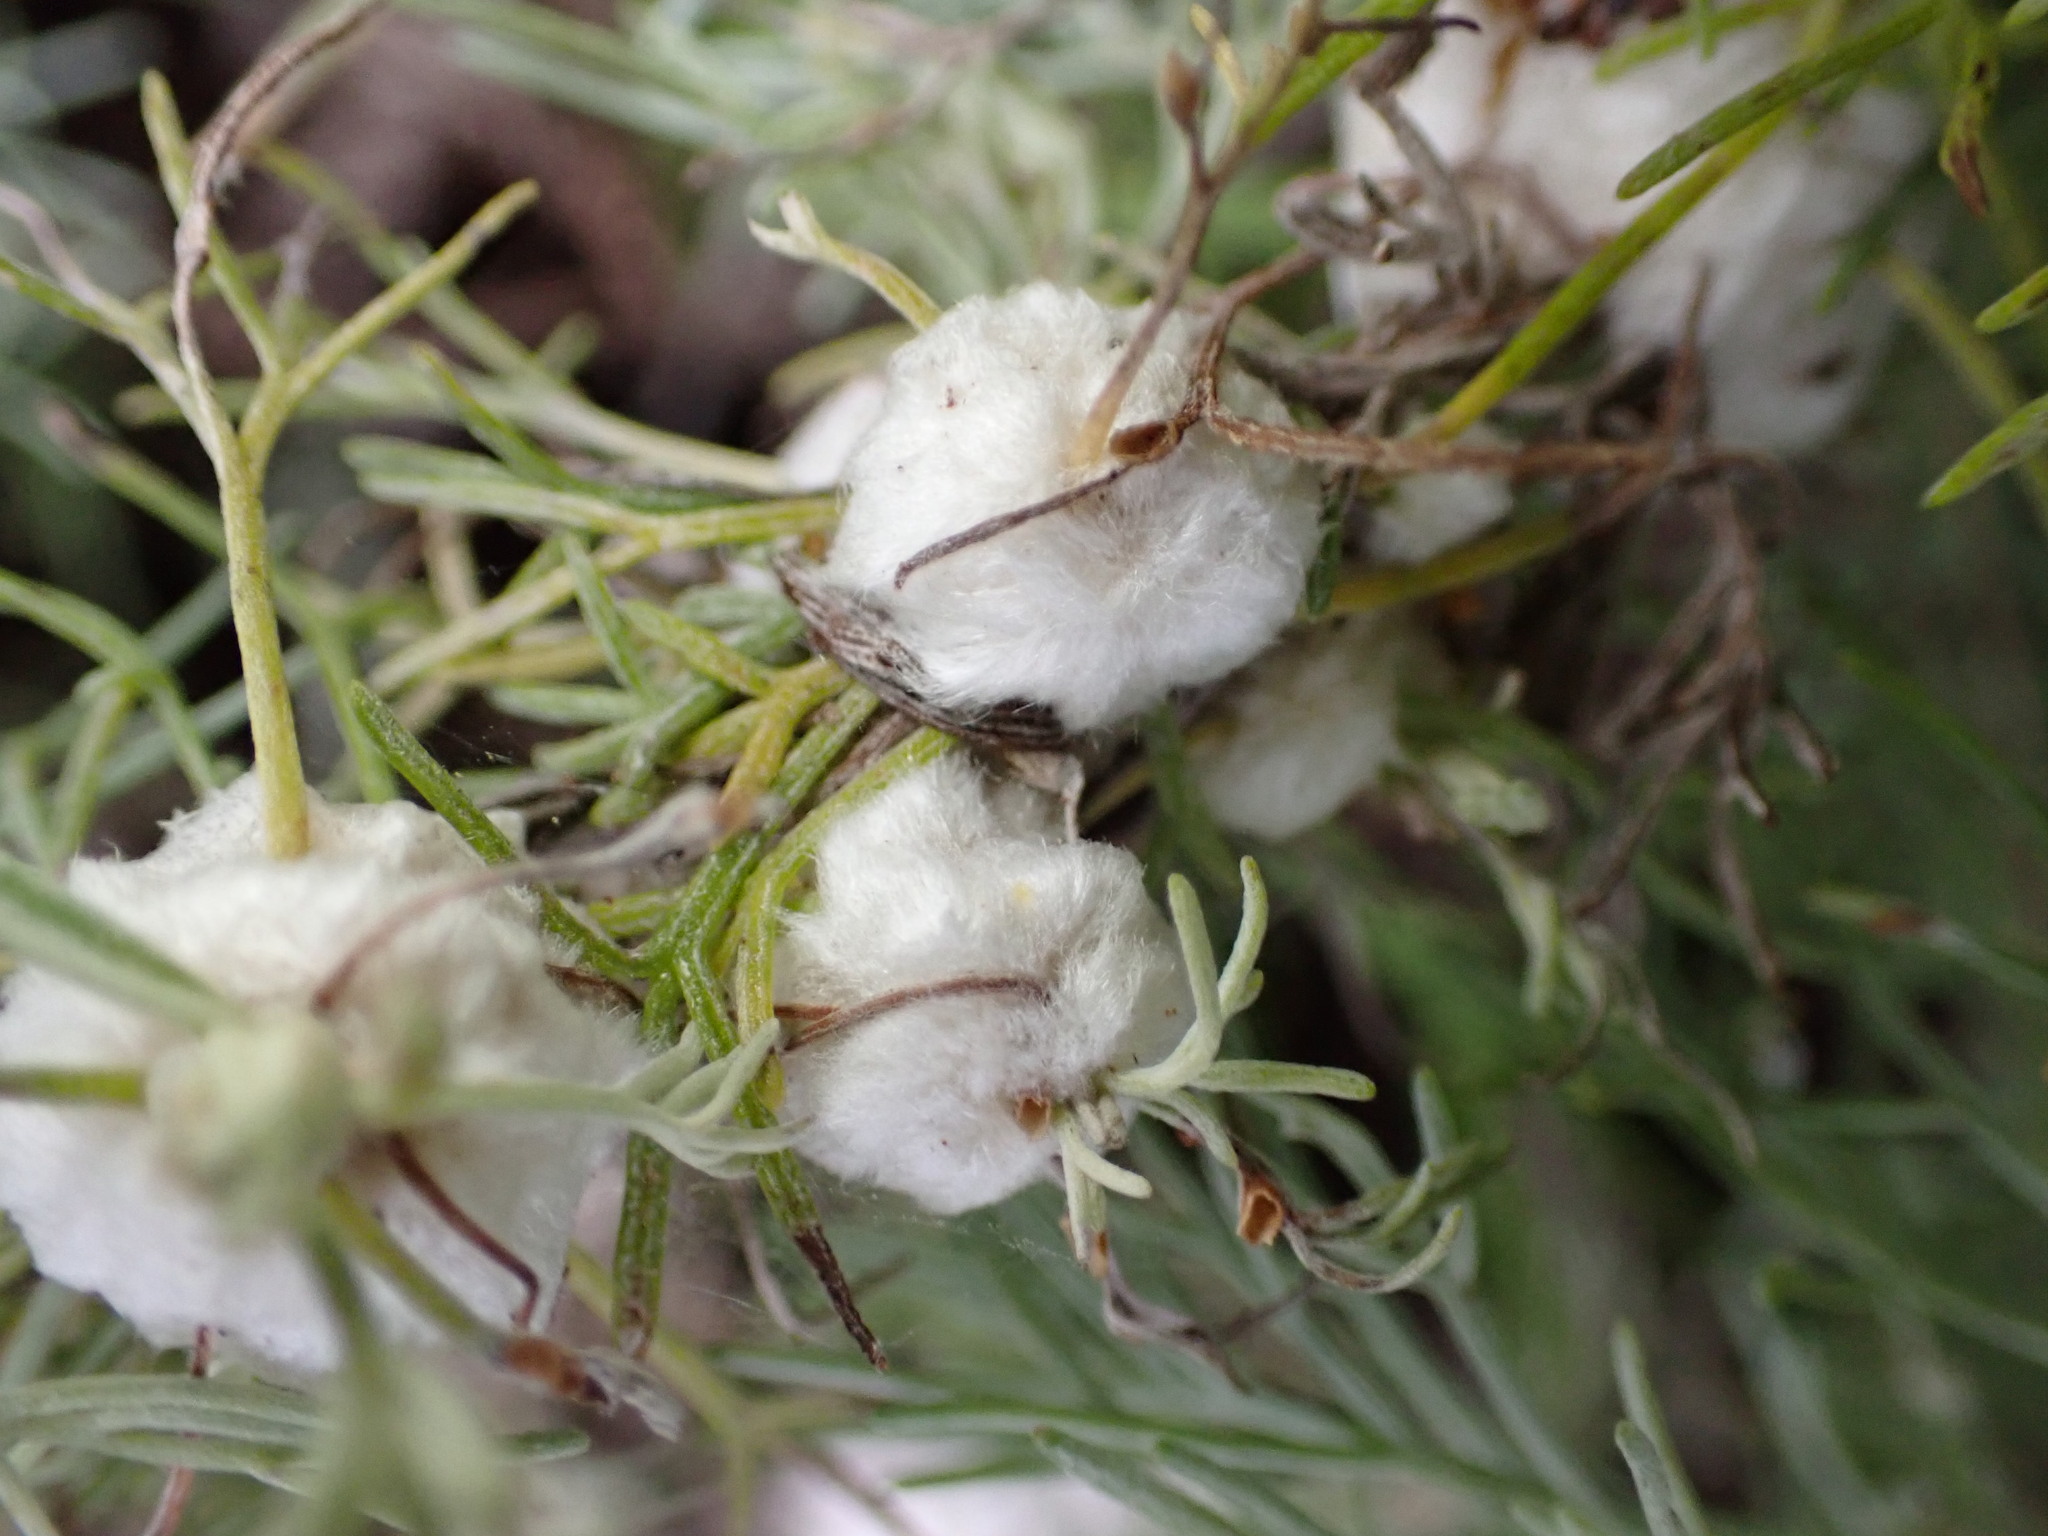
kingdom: Animalia
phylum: Arthropoda
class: Insecta
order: Diptera
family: Cecidomyiidae
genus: Rhopalomyia
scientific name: Rhopalomyia floccosa
